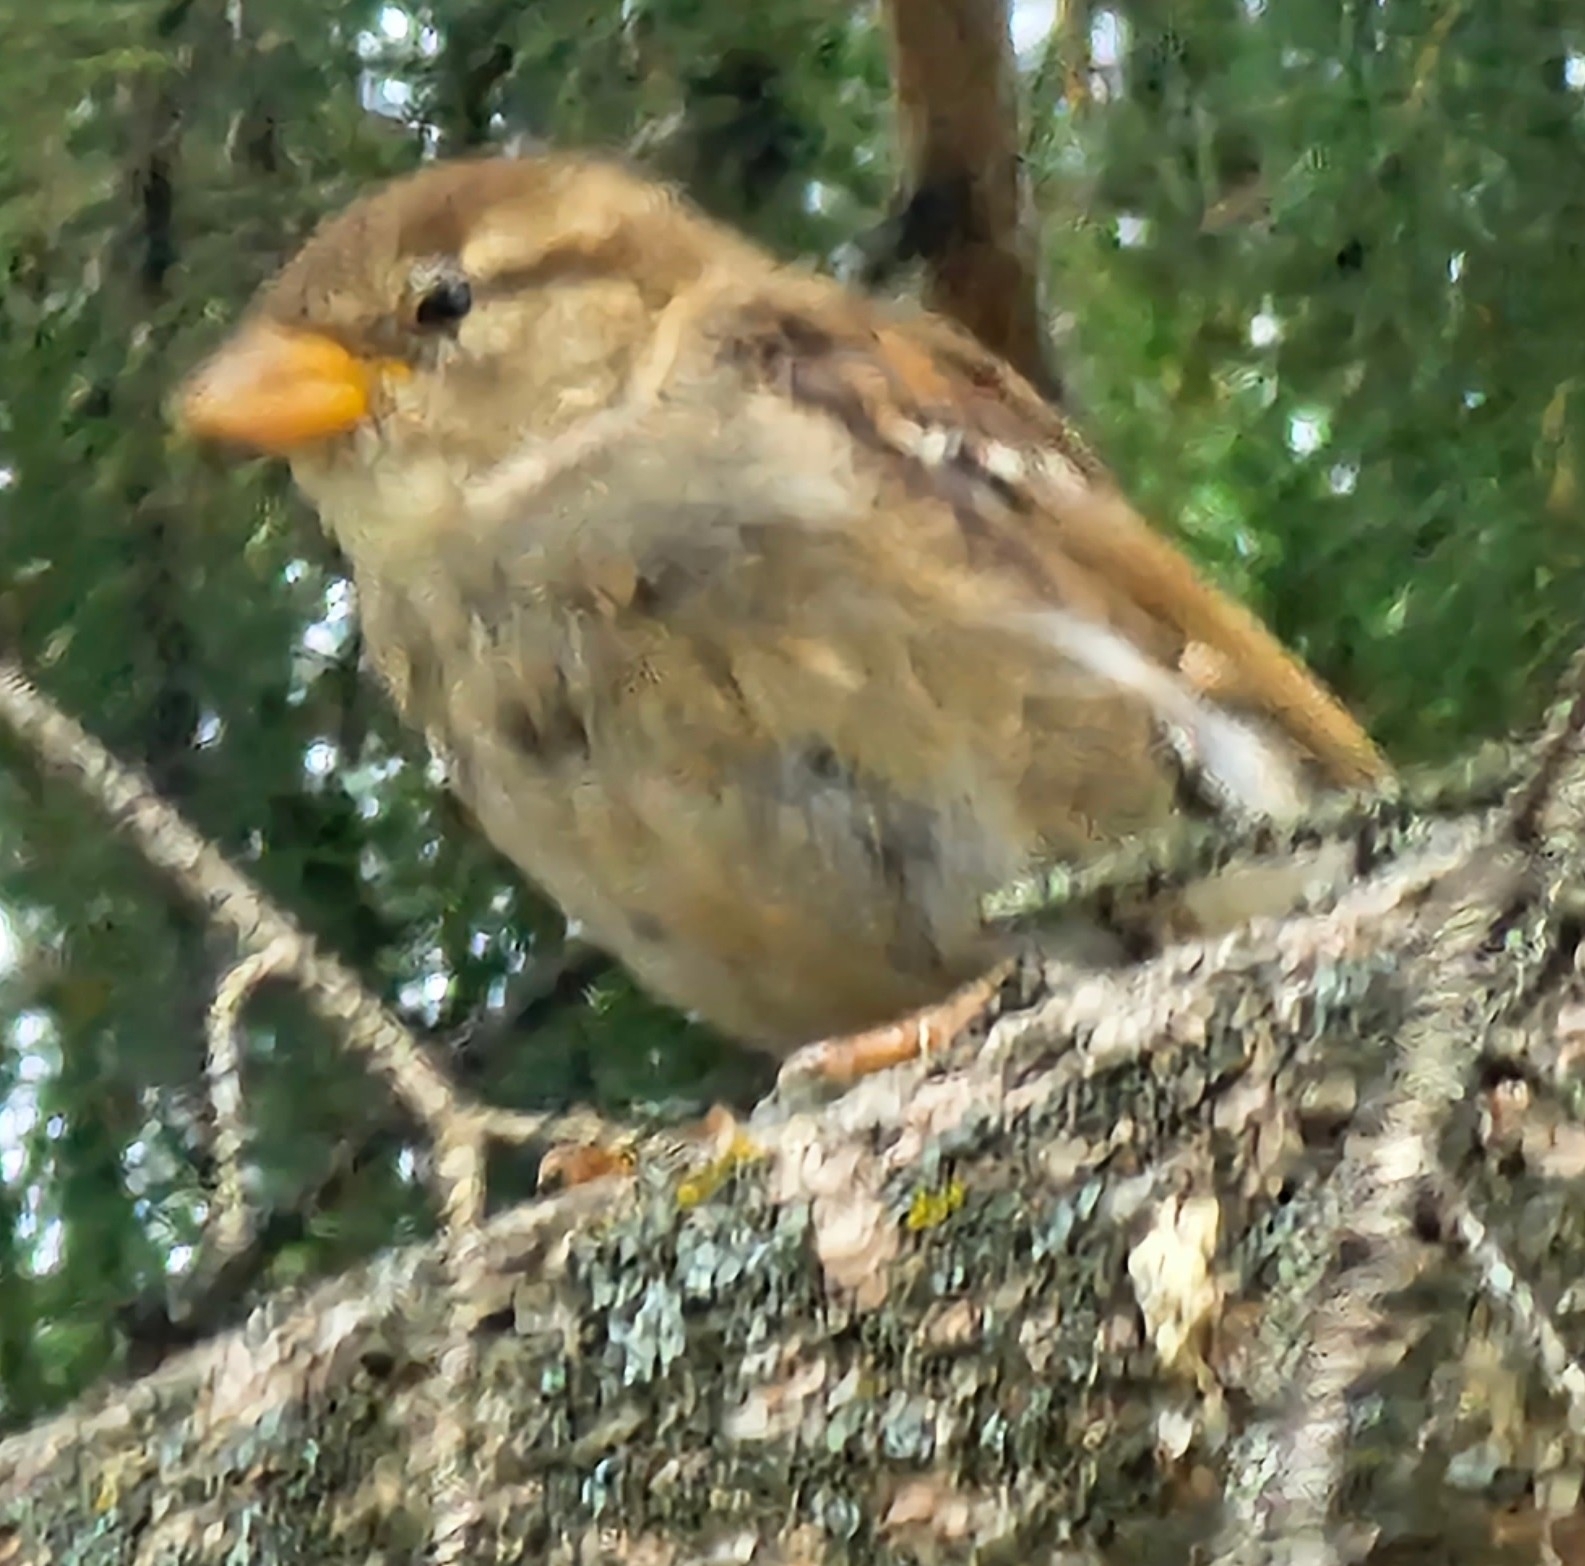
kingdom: Animalia
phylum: Chordata
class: Aves
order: Passeriformes
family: Passeridae
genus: Passer
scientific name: Passer domesticus
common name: House sparrow
